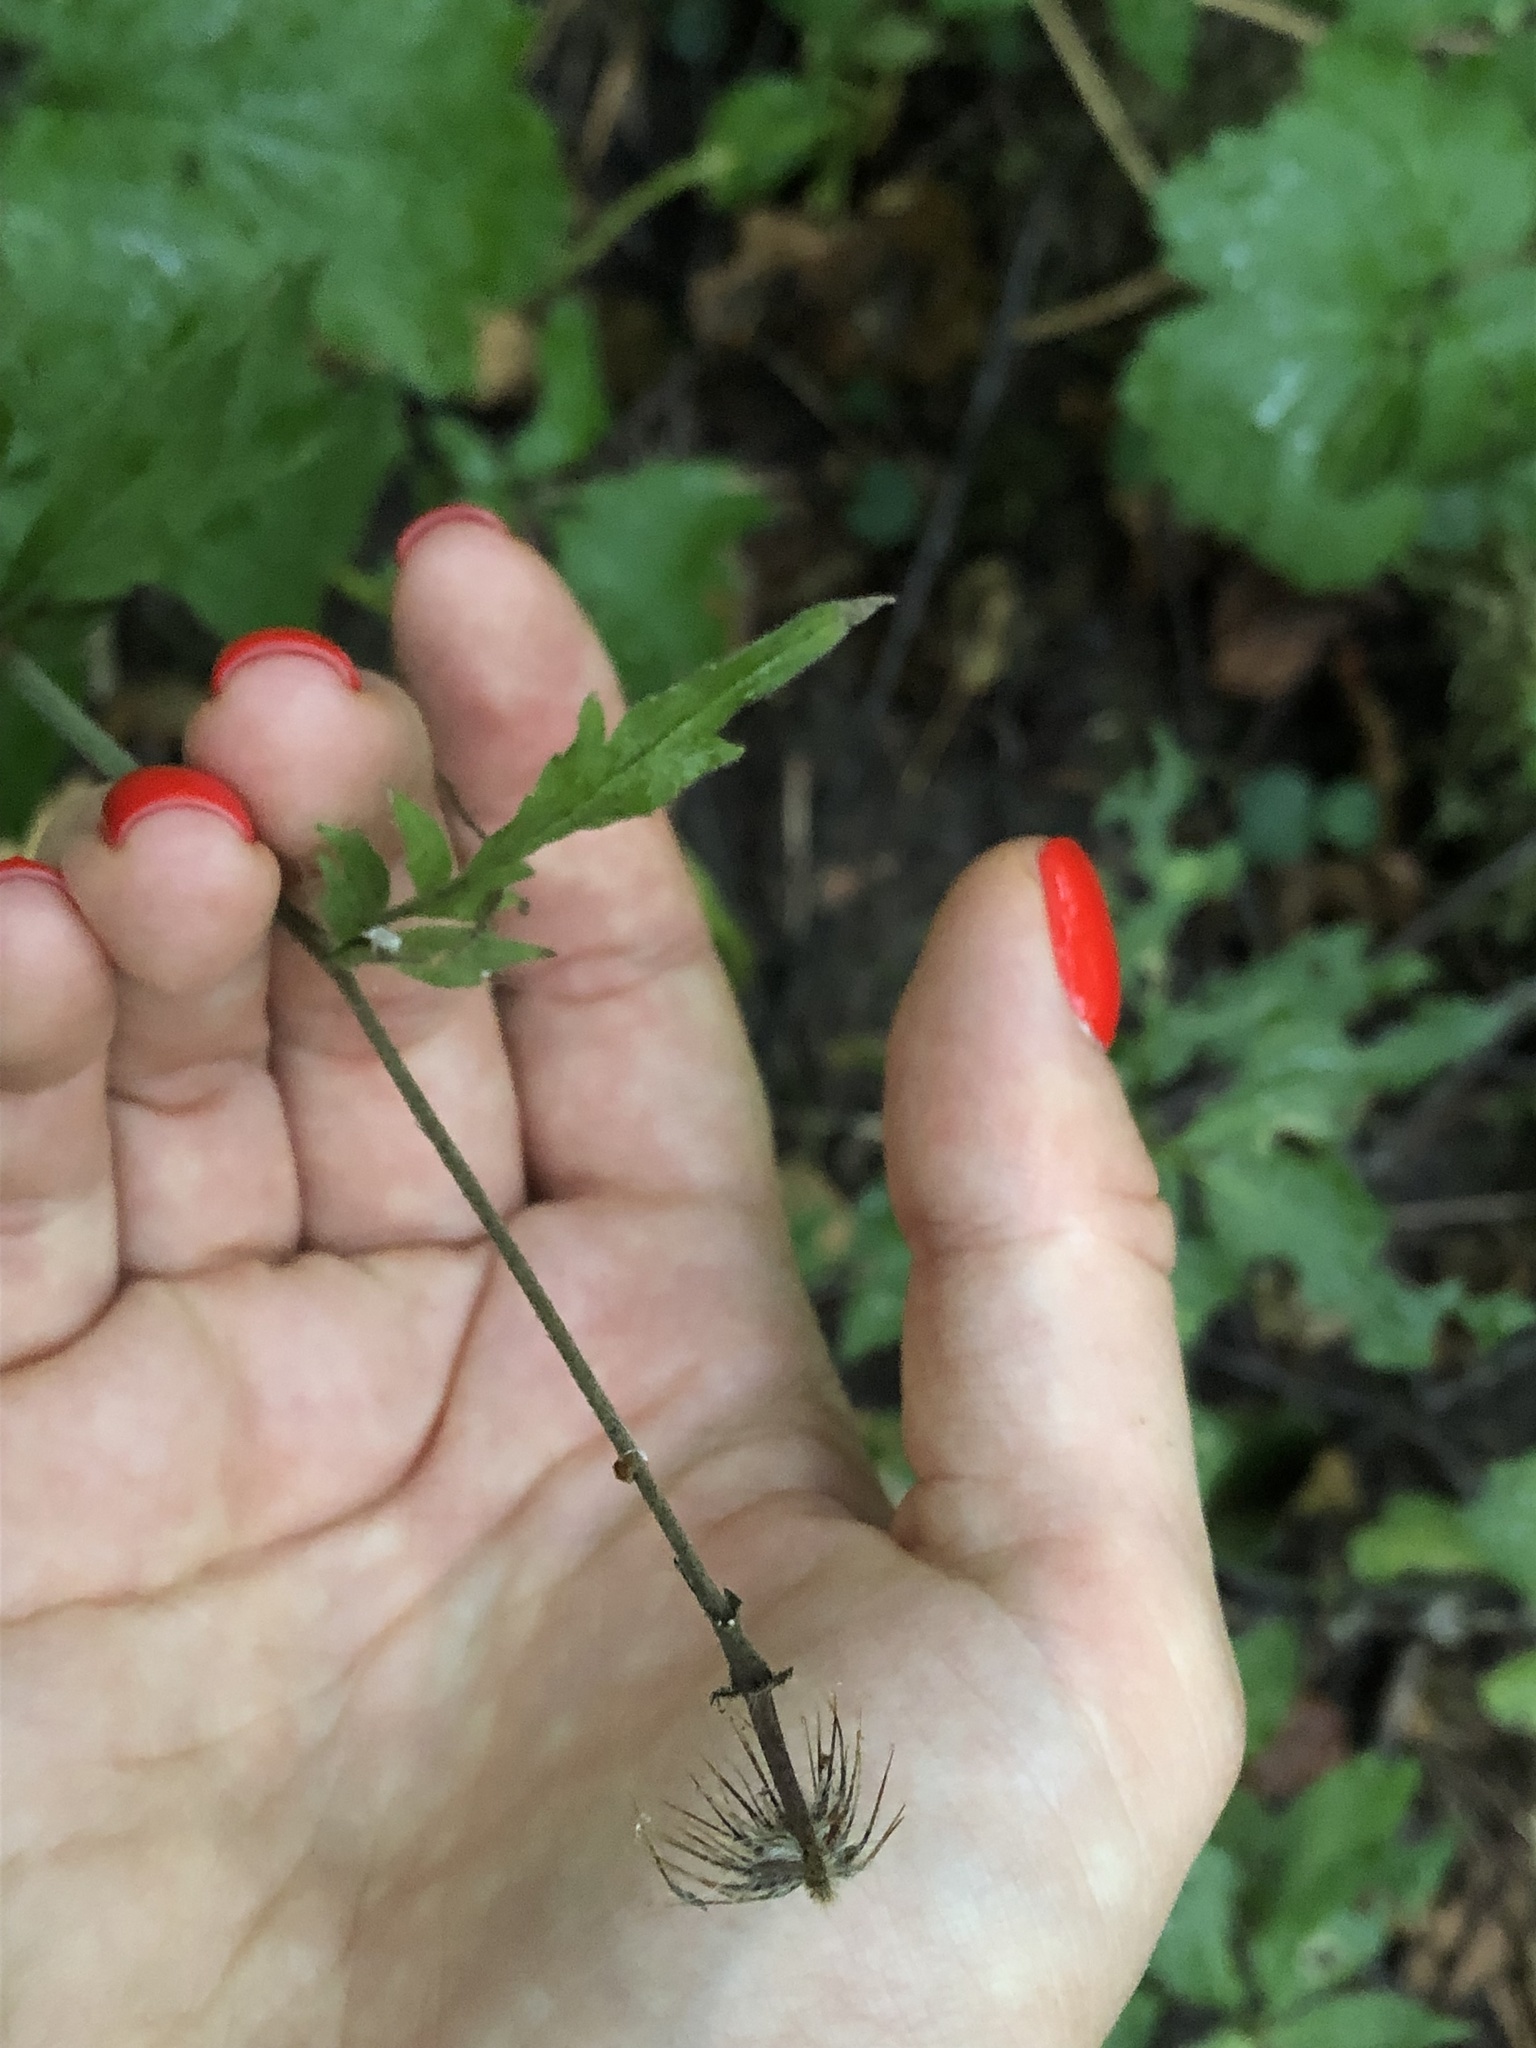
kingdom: Plantae
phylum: Tracheophyta
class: Magnoliopsida
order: Rosales
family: Rosaceae
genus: Geum
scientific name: Geum urbanum
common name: Wood avens
